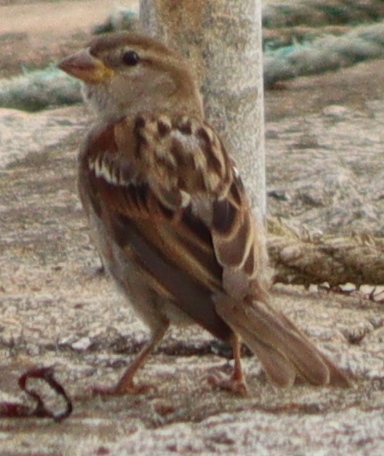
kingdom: Animalia
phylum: Chordata
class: Aves
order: Passeriformes
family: Passeridae
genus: Passer
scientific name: Passer domesticus
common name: House sparrow
